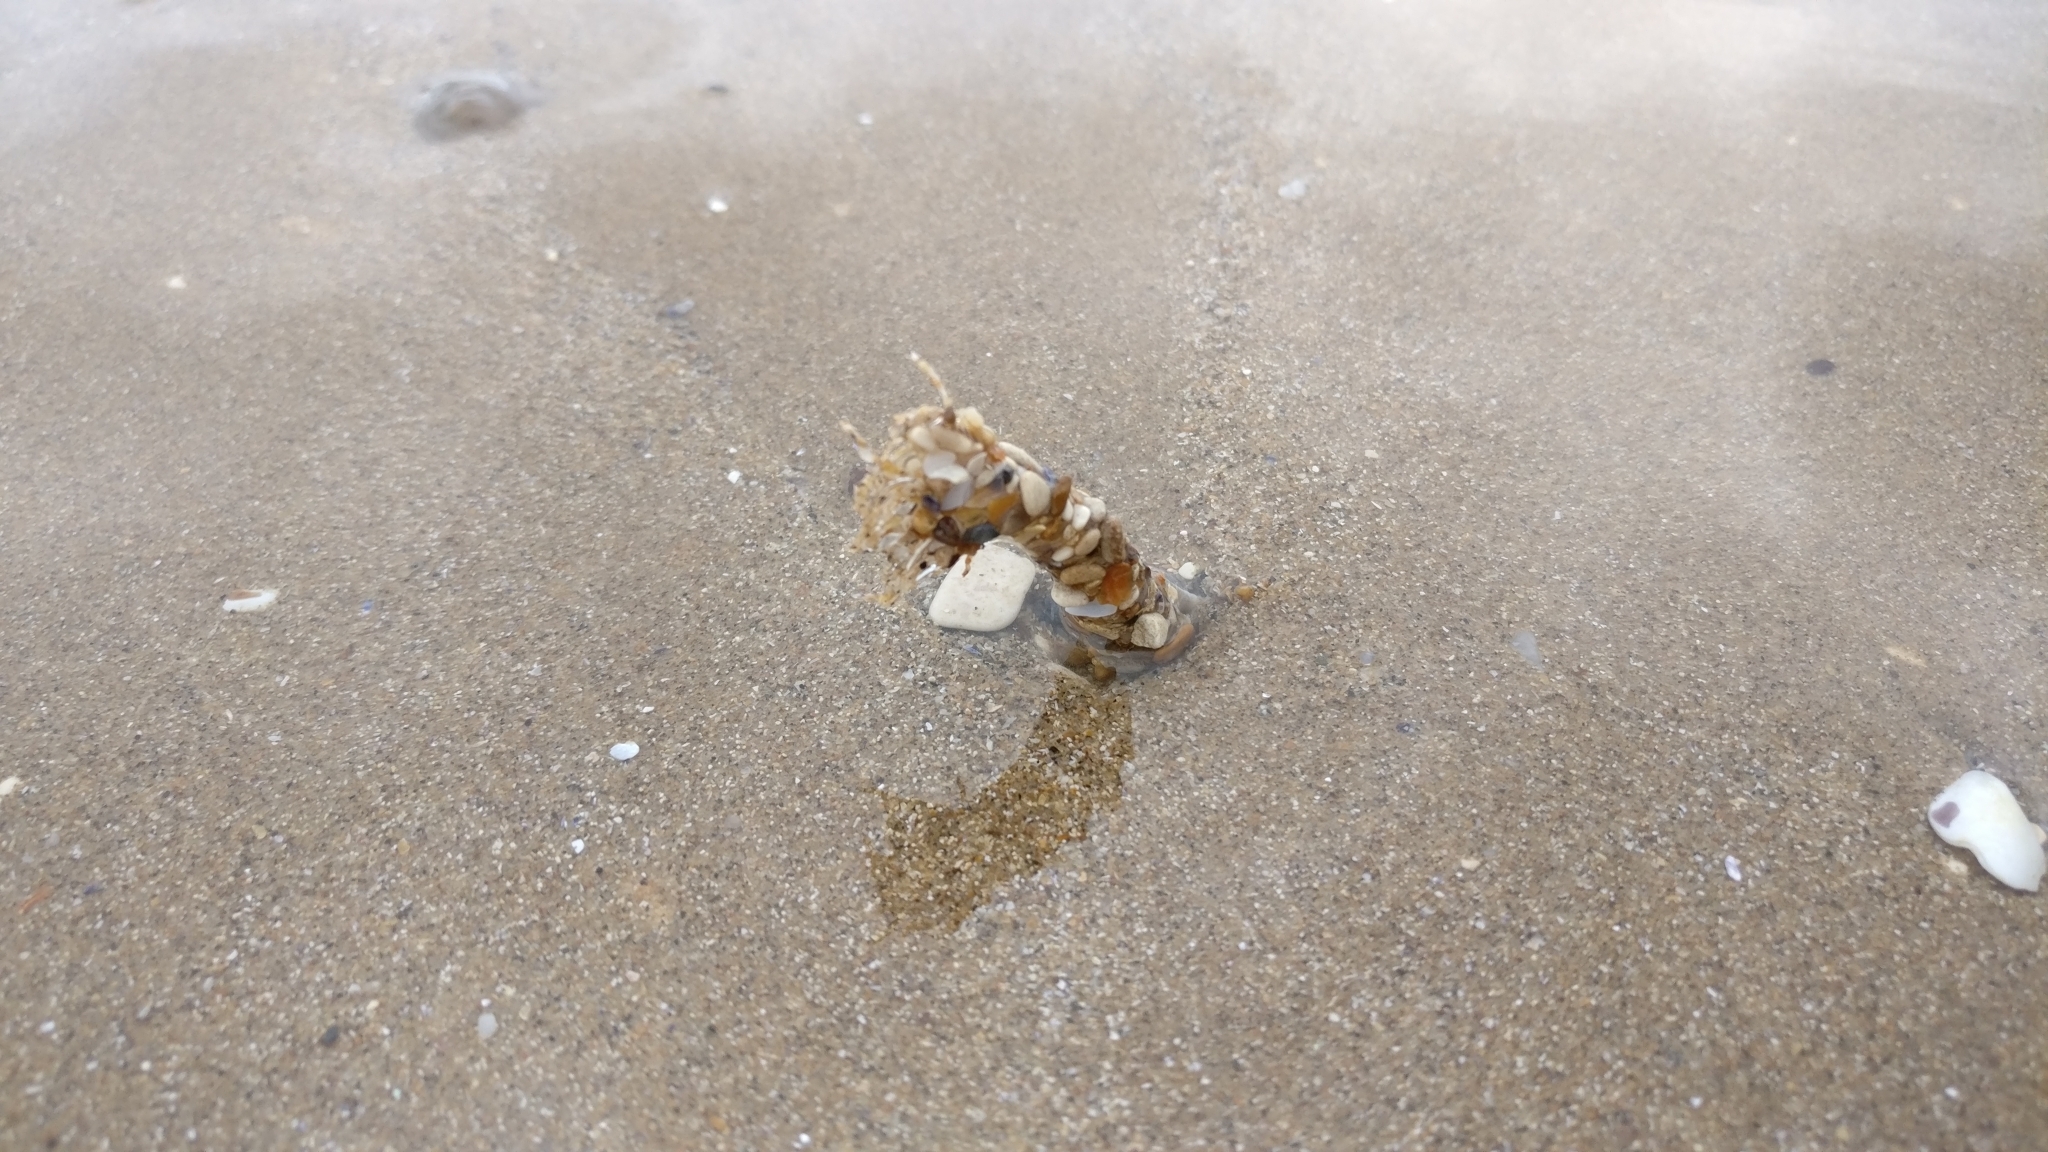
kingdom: Animalia
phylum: Annelida
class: Polychaeta
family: Terebellidae
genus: Lanice
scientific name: Lanice conchilega
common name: Sand mason
